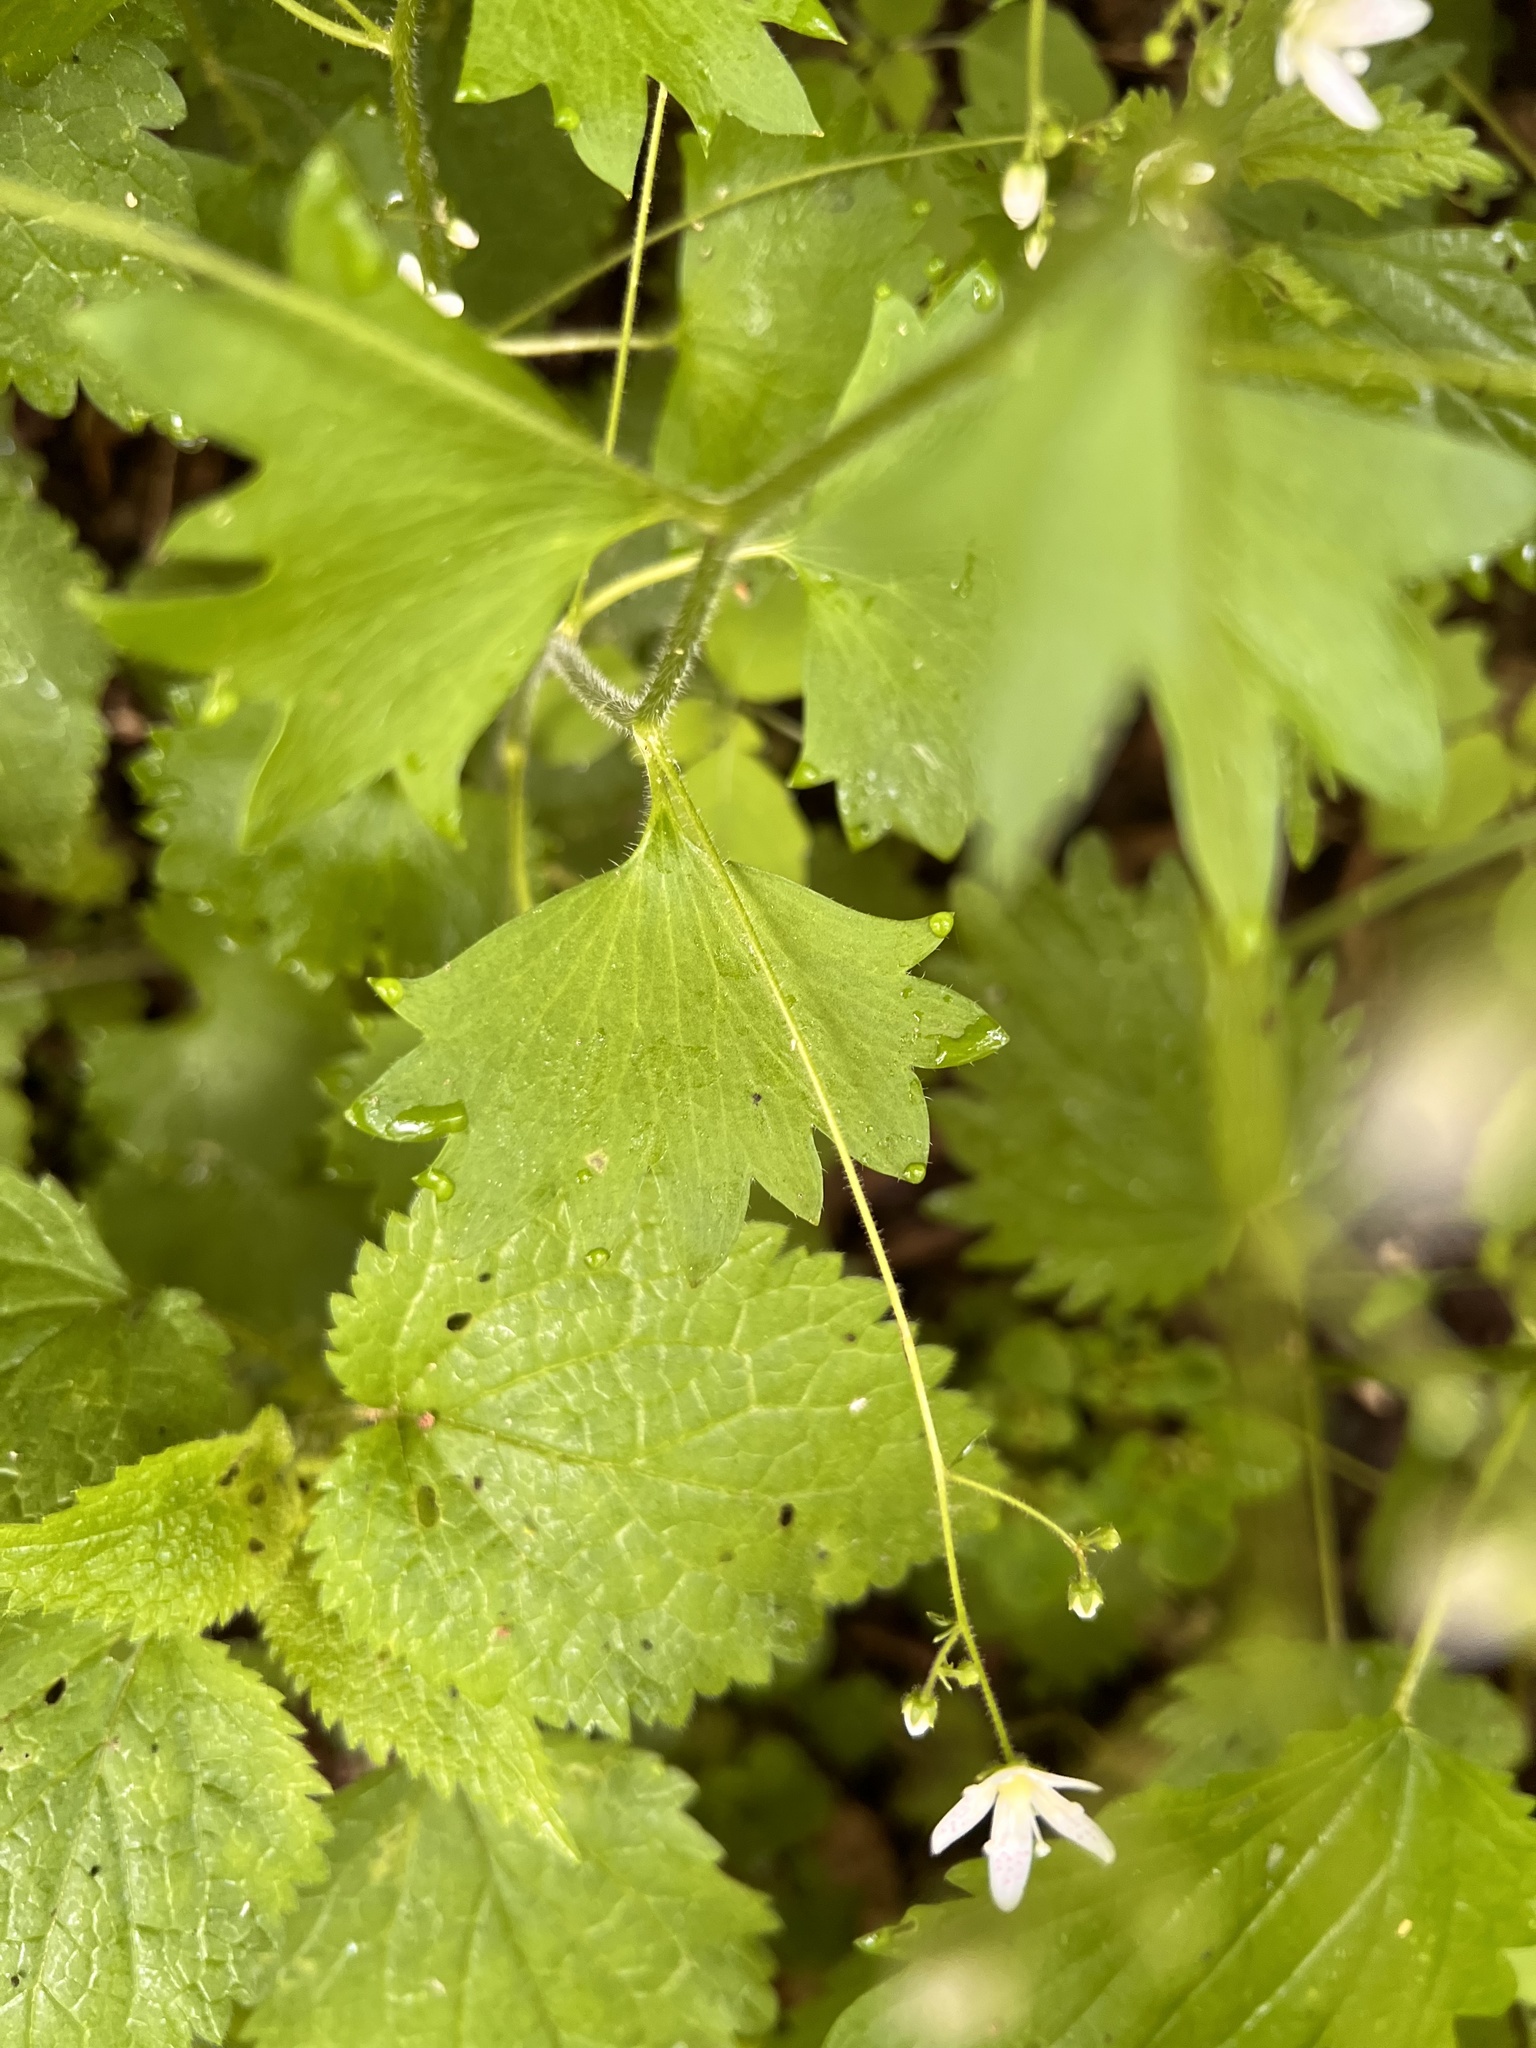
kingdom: Plantae
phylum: Tracheophyta
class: Magnoliopsida
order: Saxifragales
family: Saxifragaceae
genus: Saxifraga
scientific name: Saxifraga rotundifolia
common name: Round-leaved saxifrage
